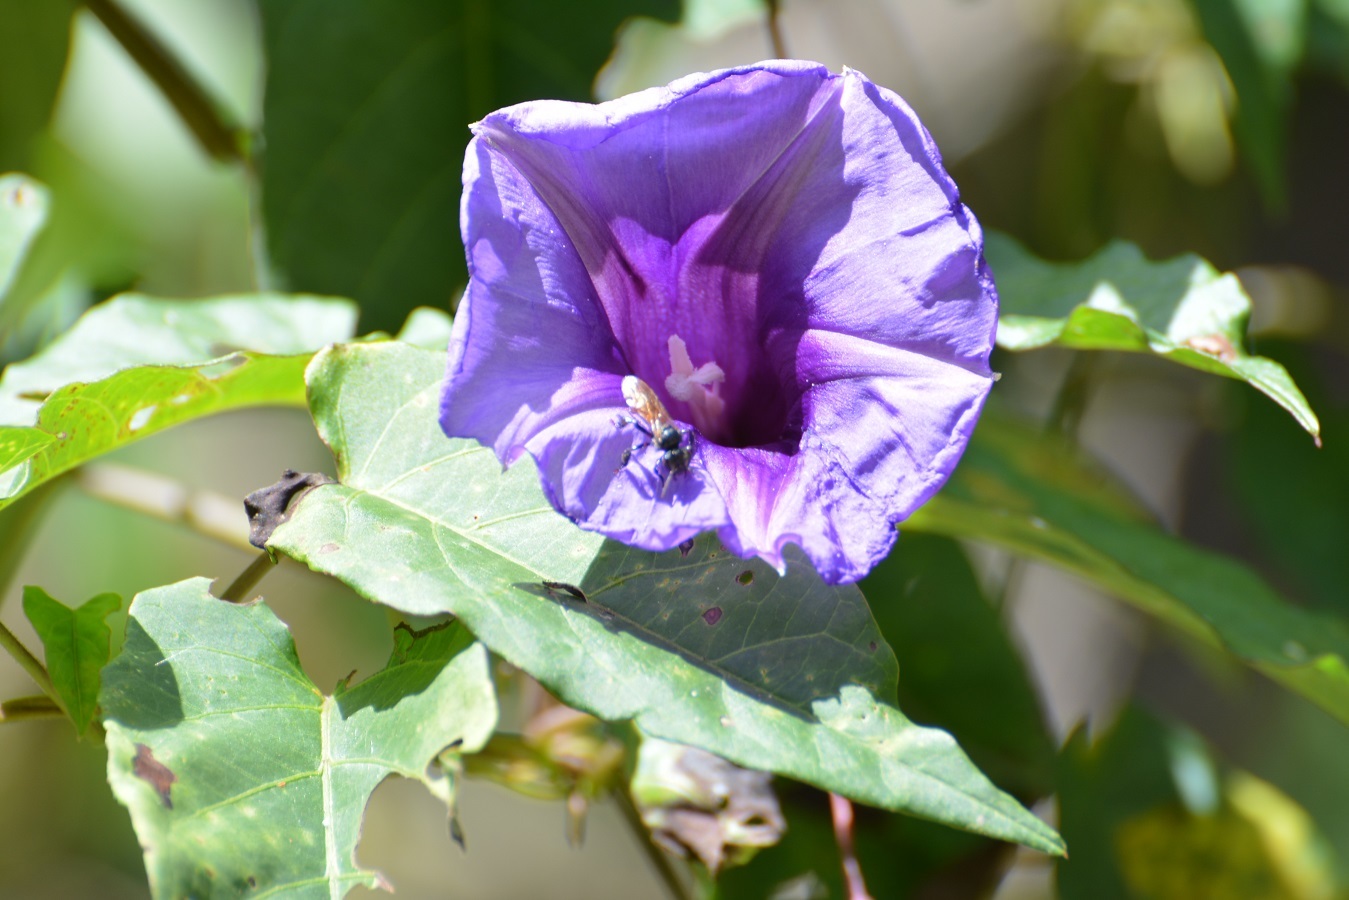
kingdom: Plantae
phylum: Tracheophyta
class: Magnoliopsida
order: Solanales
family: Convolvulaceae
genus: Ipomoea
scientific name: Ipomoea lindenii
